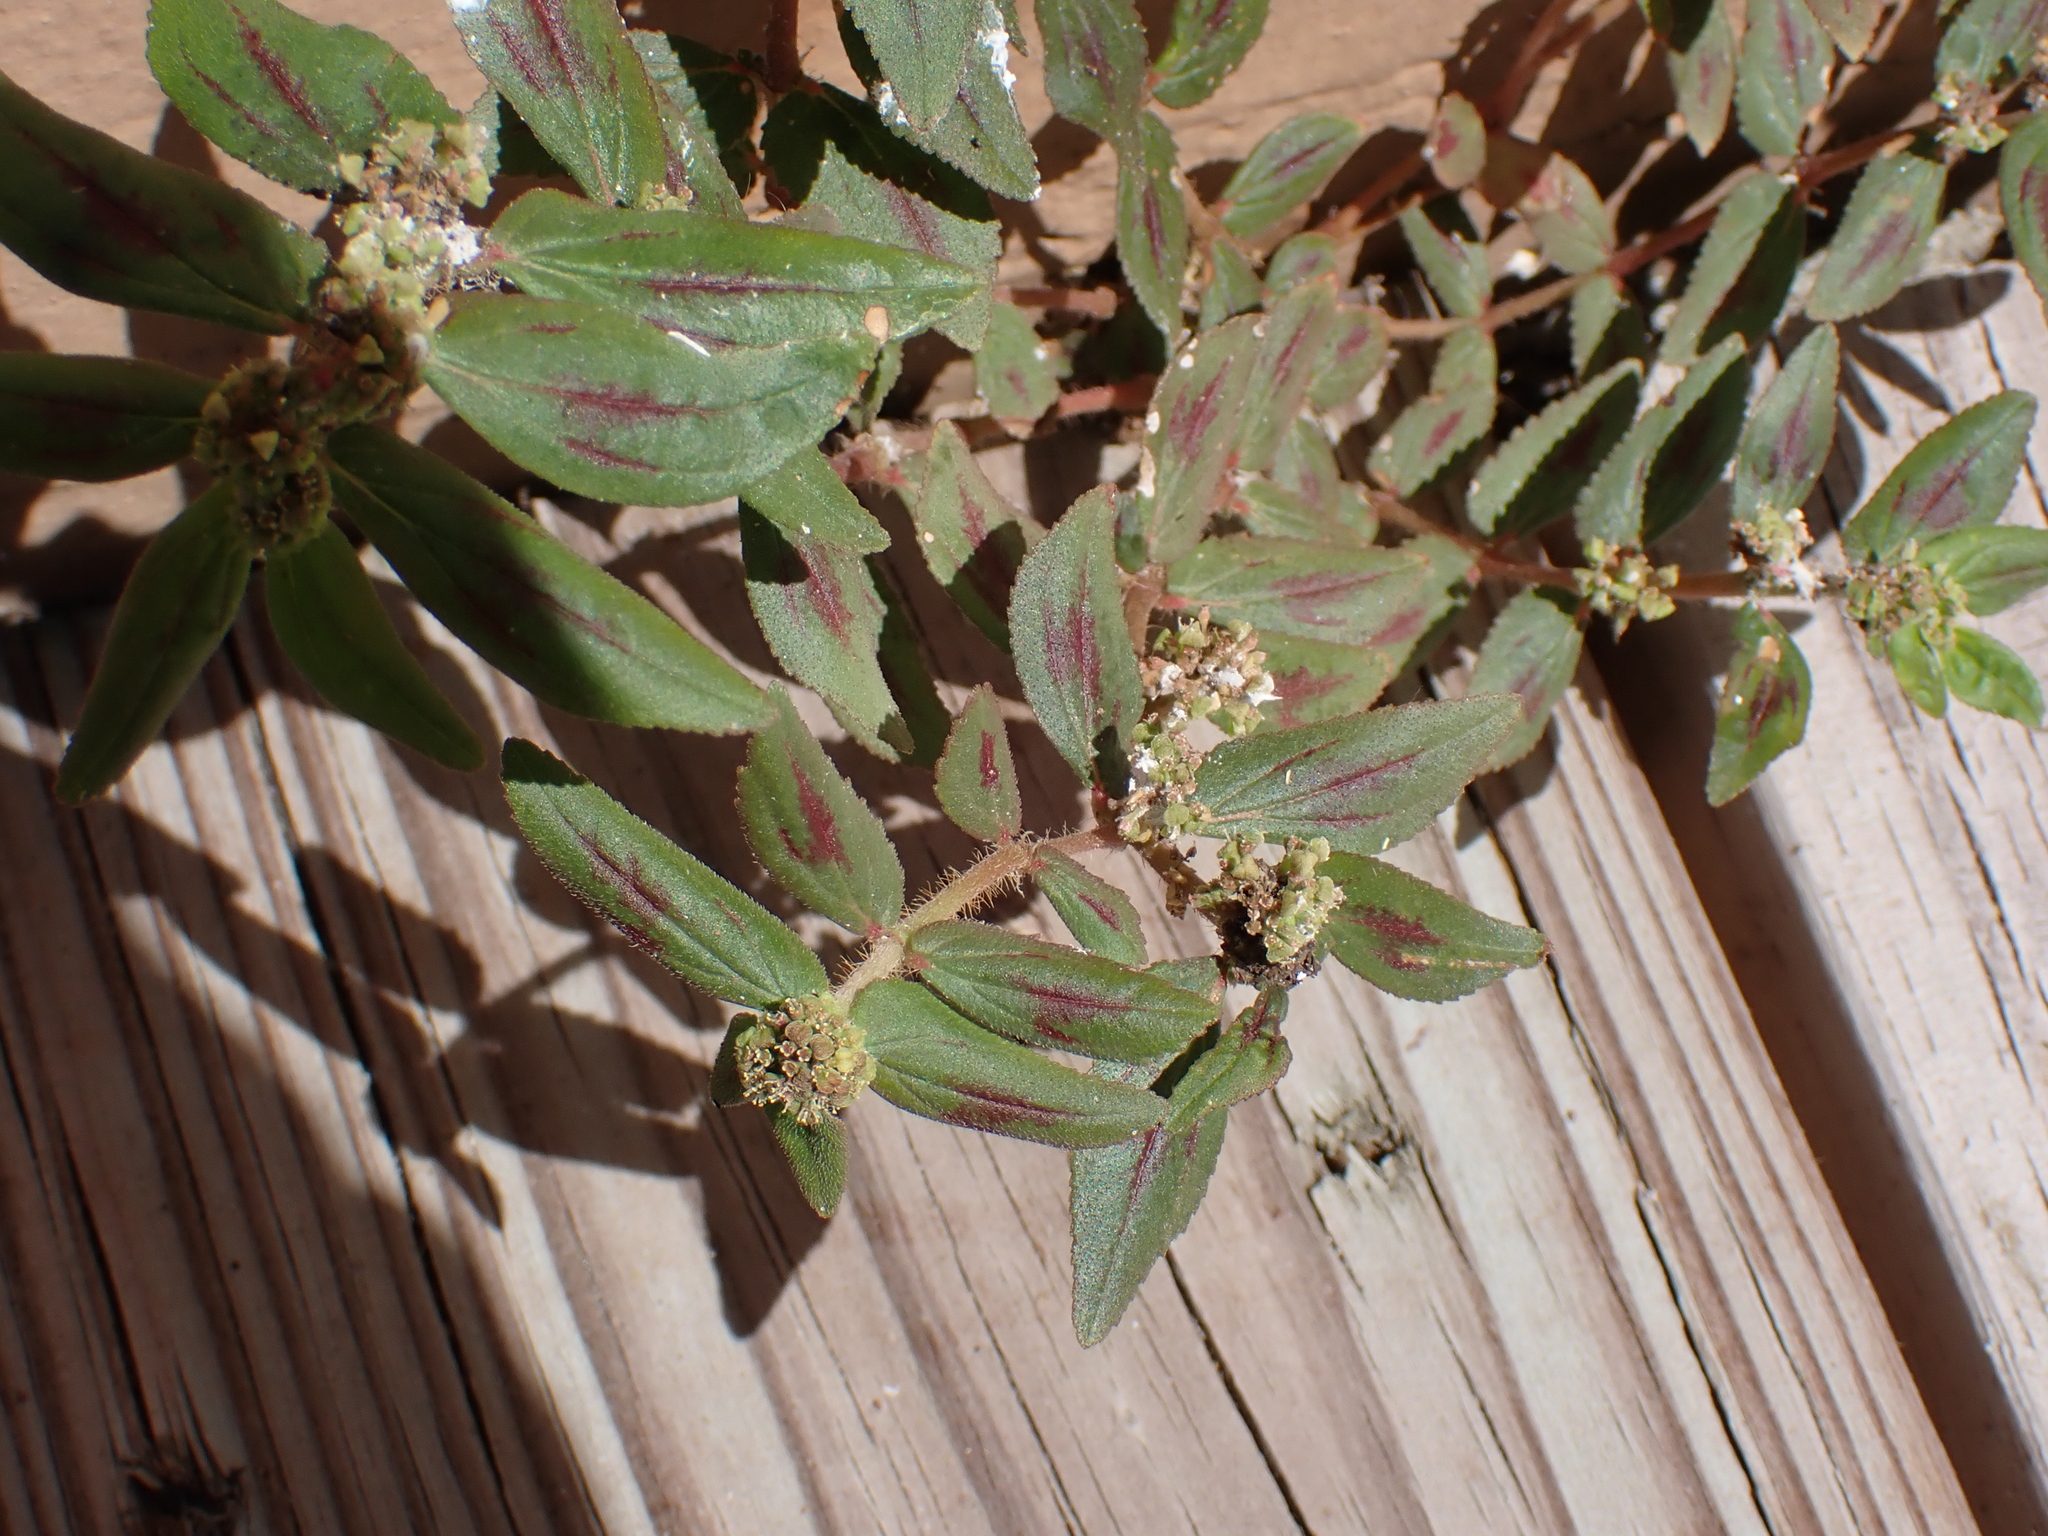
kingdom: Plantae
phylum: Tracheophyta
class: Magnoliopsida
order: Malpighiales
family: Euphorbiaceae
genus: Euphorbia
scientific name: Euphorbia hirta
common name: Pillpod sandmat
